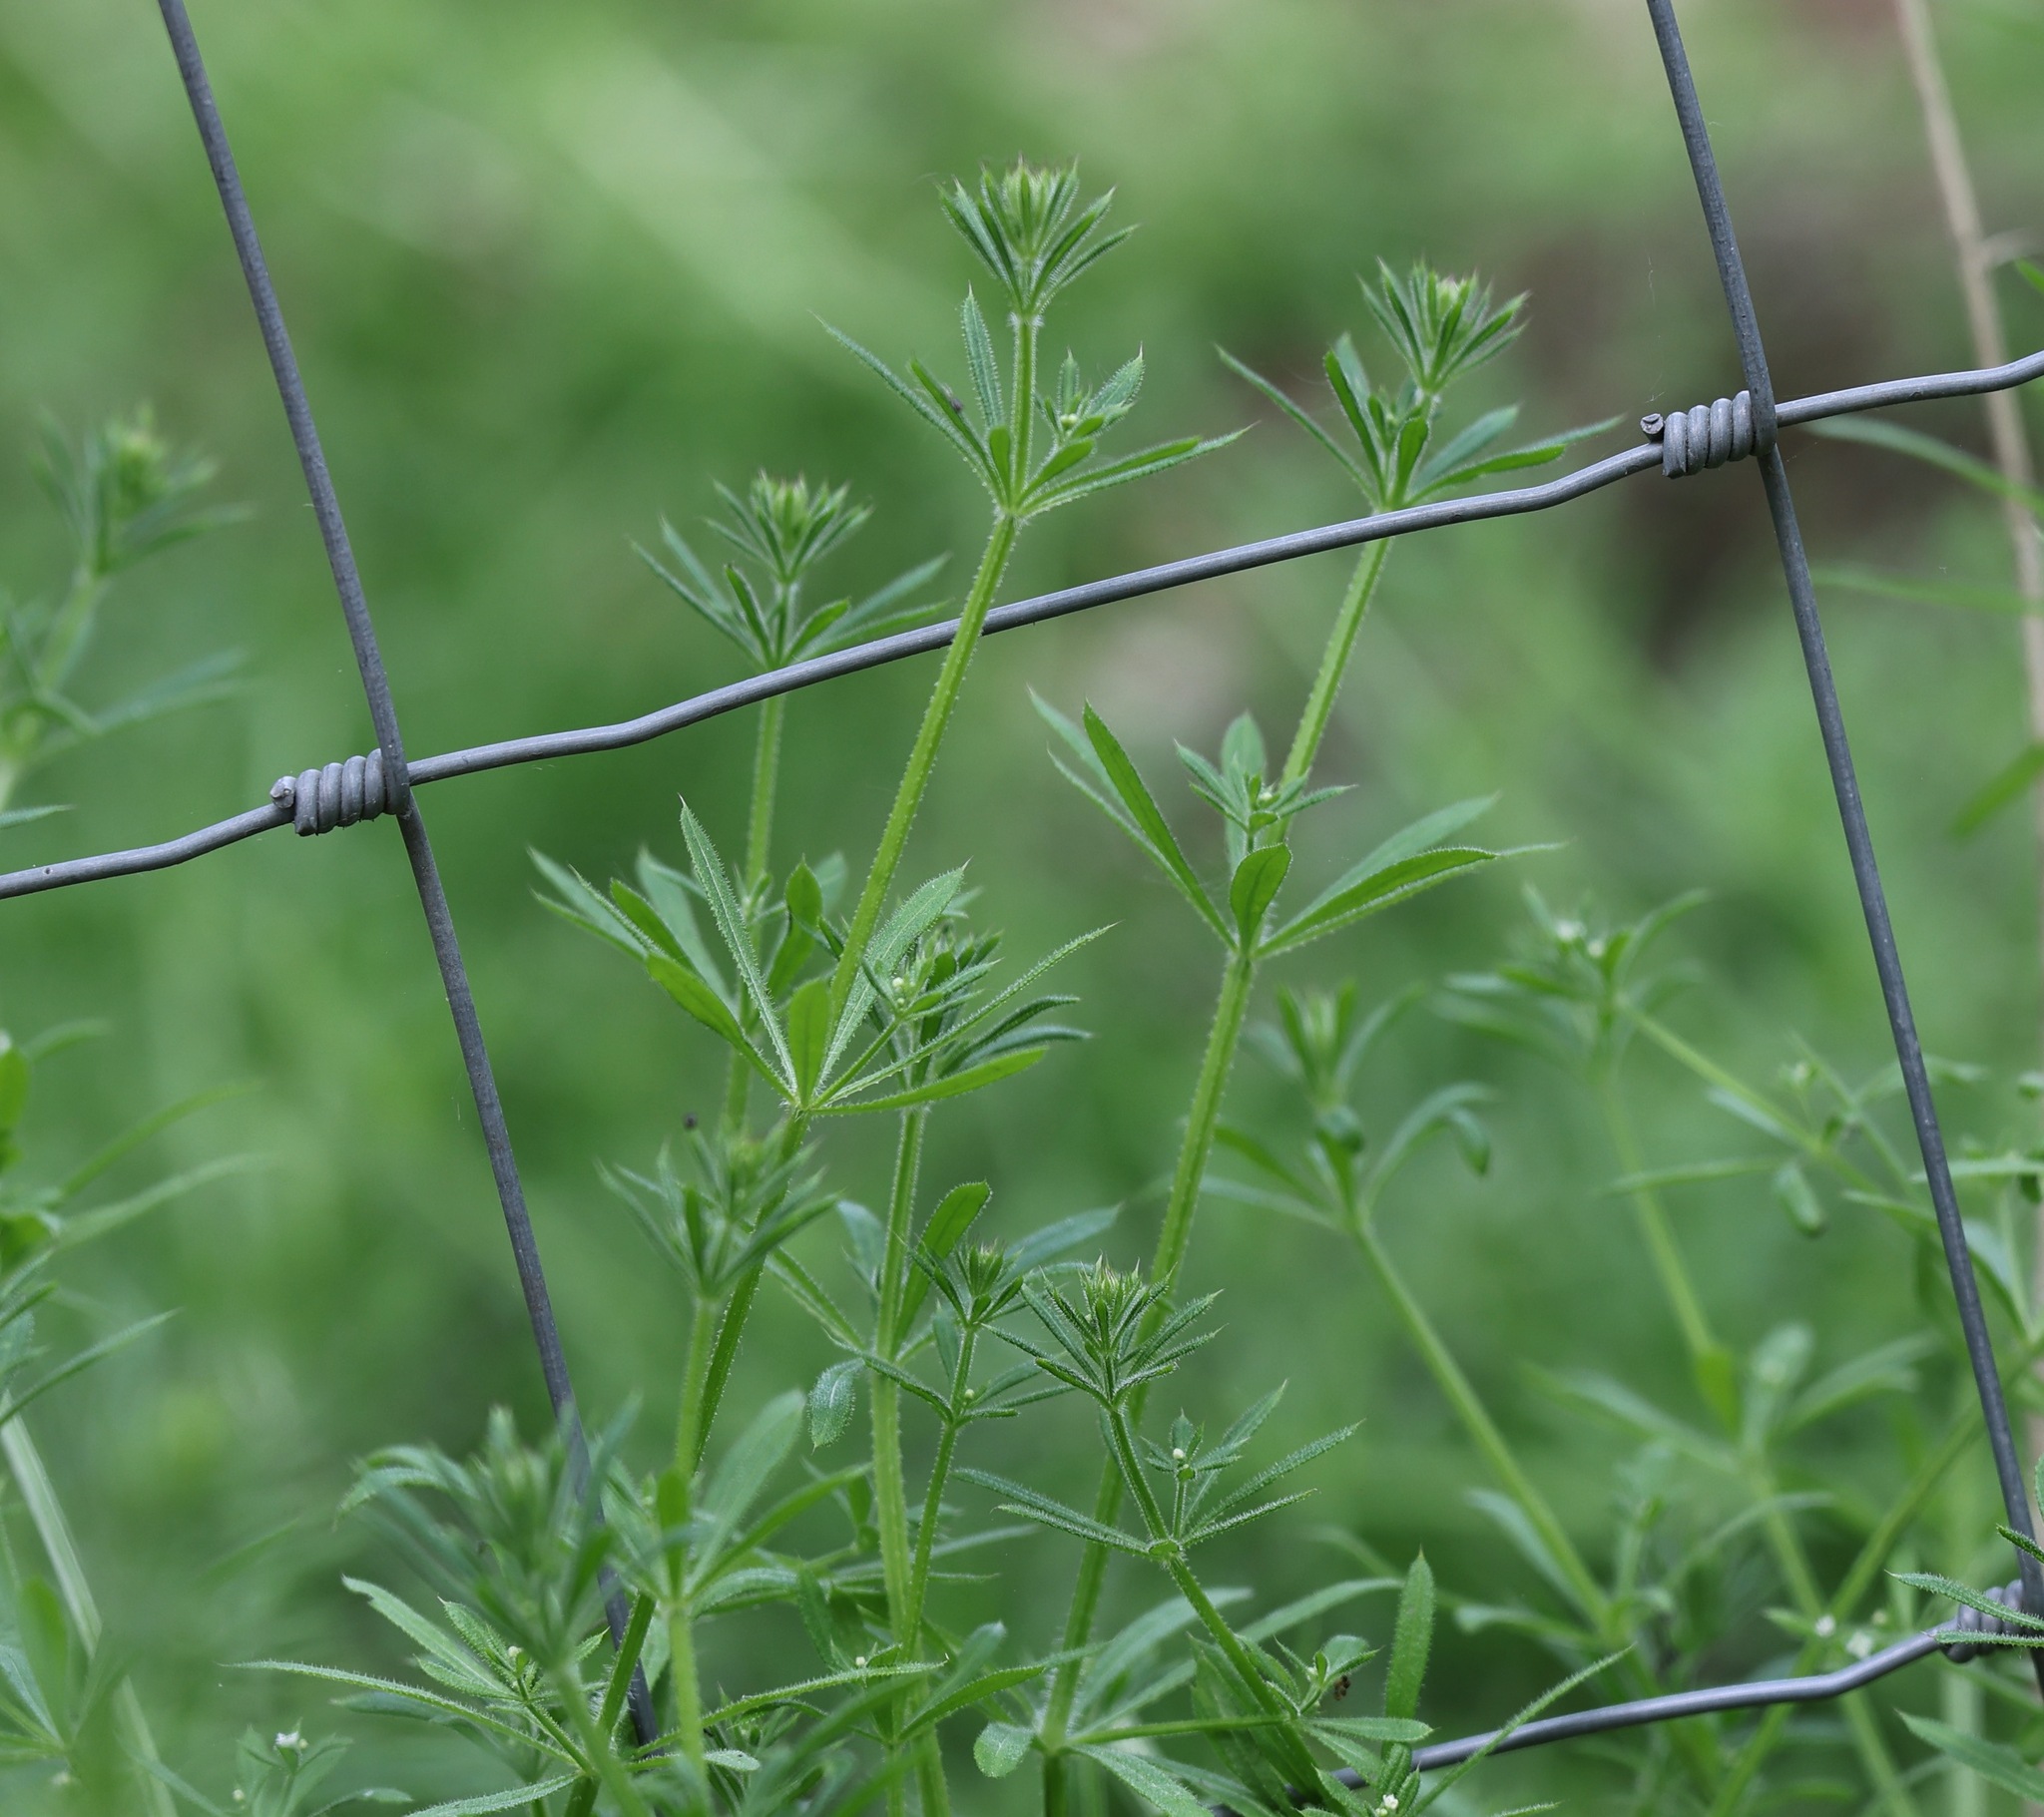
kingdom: Plantae
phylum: Tracheophyta
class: Magnoliopsida
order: Gentianales
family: Rubiaceae
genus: Galium
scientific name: Galium aparine
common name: Cleavers
